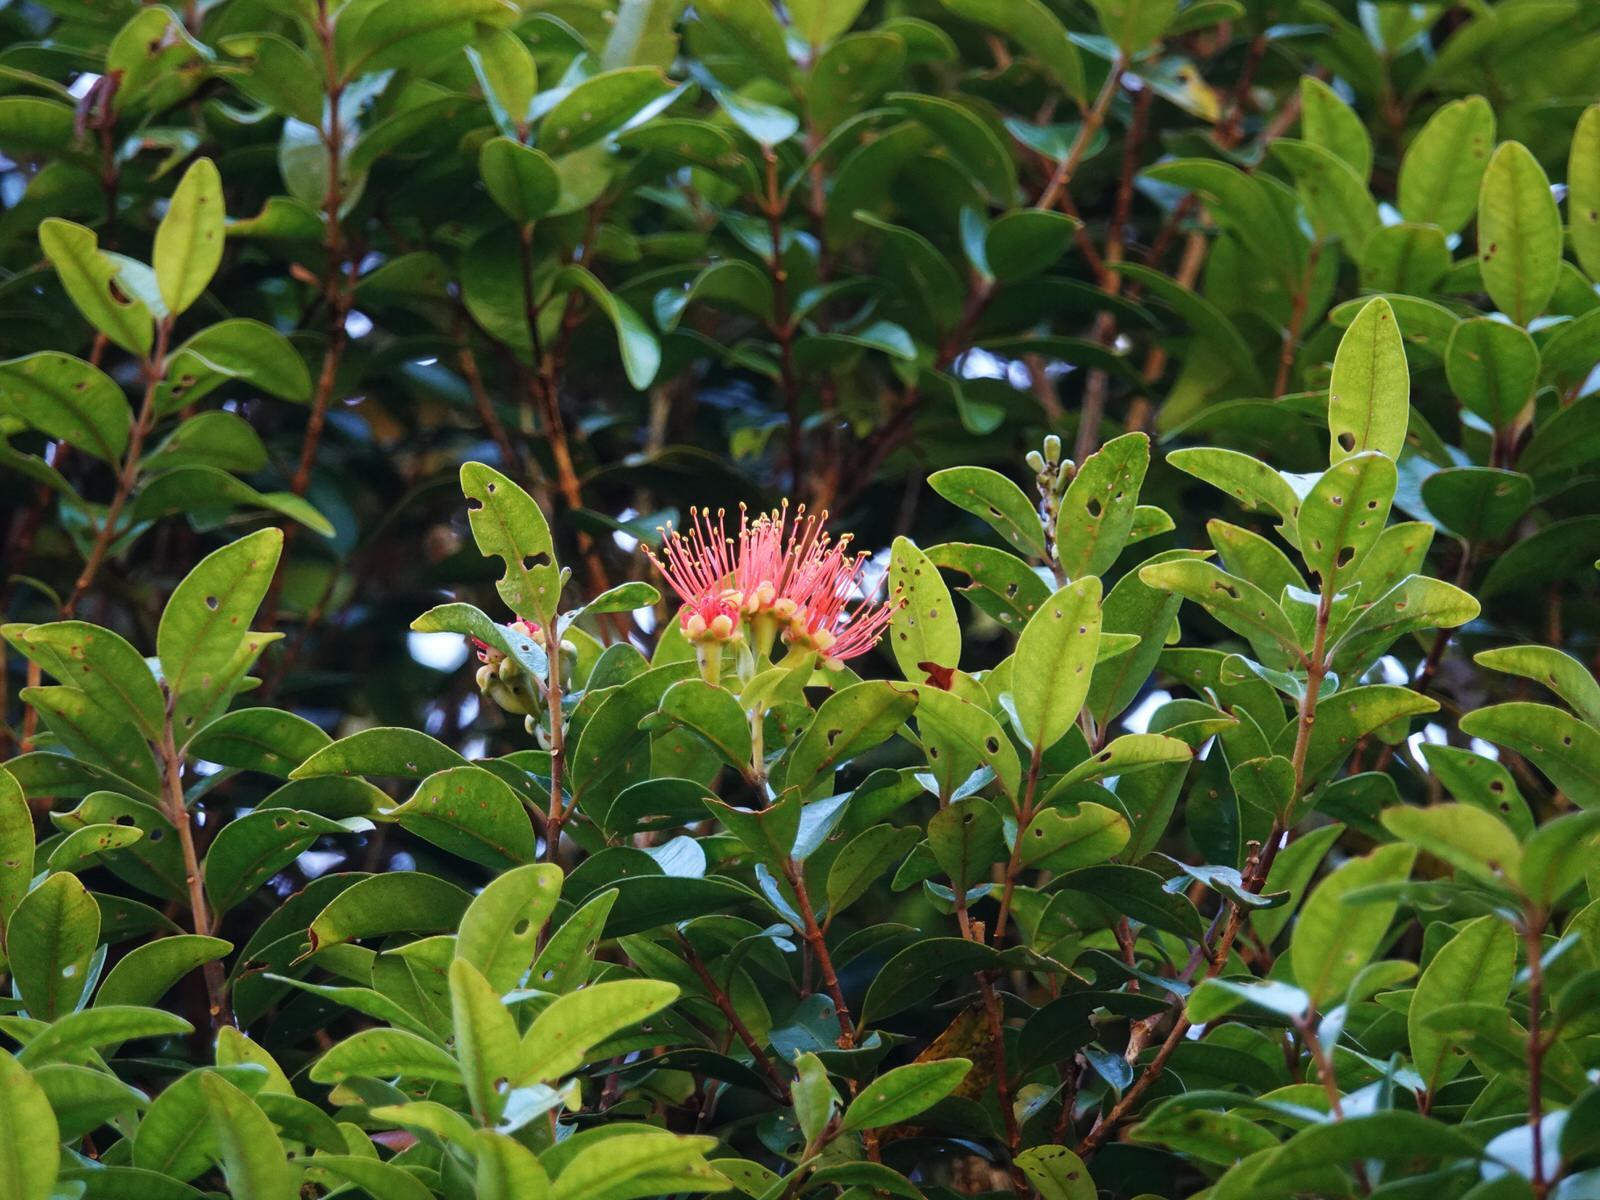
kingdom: Plantae
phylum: Tracheophyta
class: Magnoliopsida
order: Myrtales
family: Myrtaceae
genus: Metrosideros
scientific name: Metrosideros fulgens
